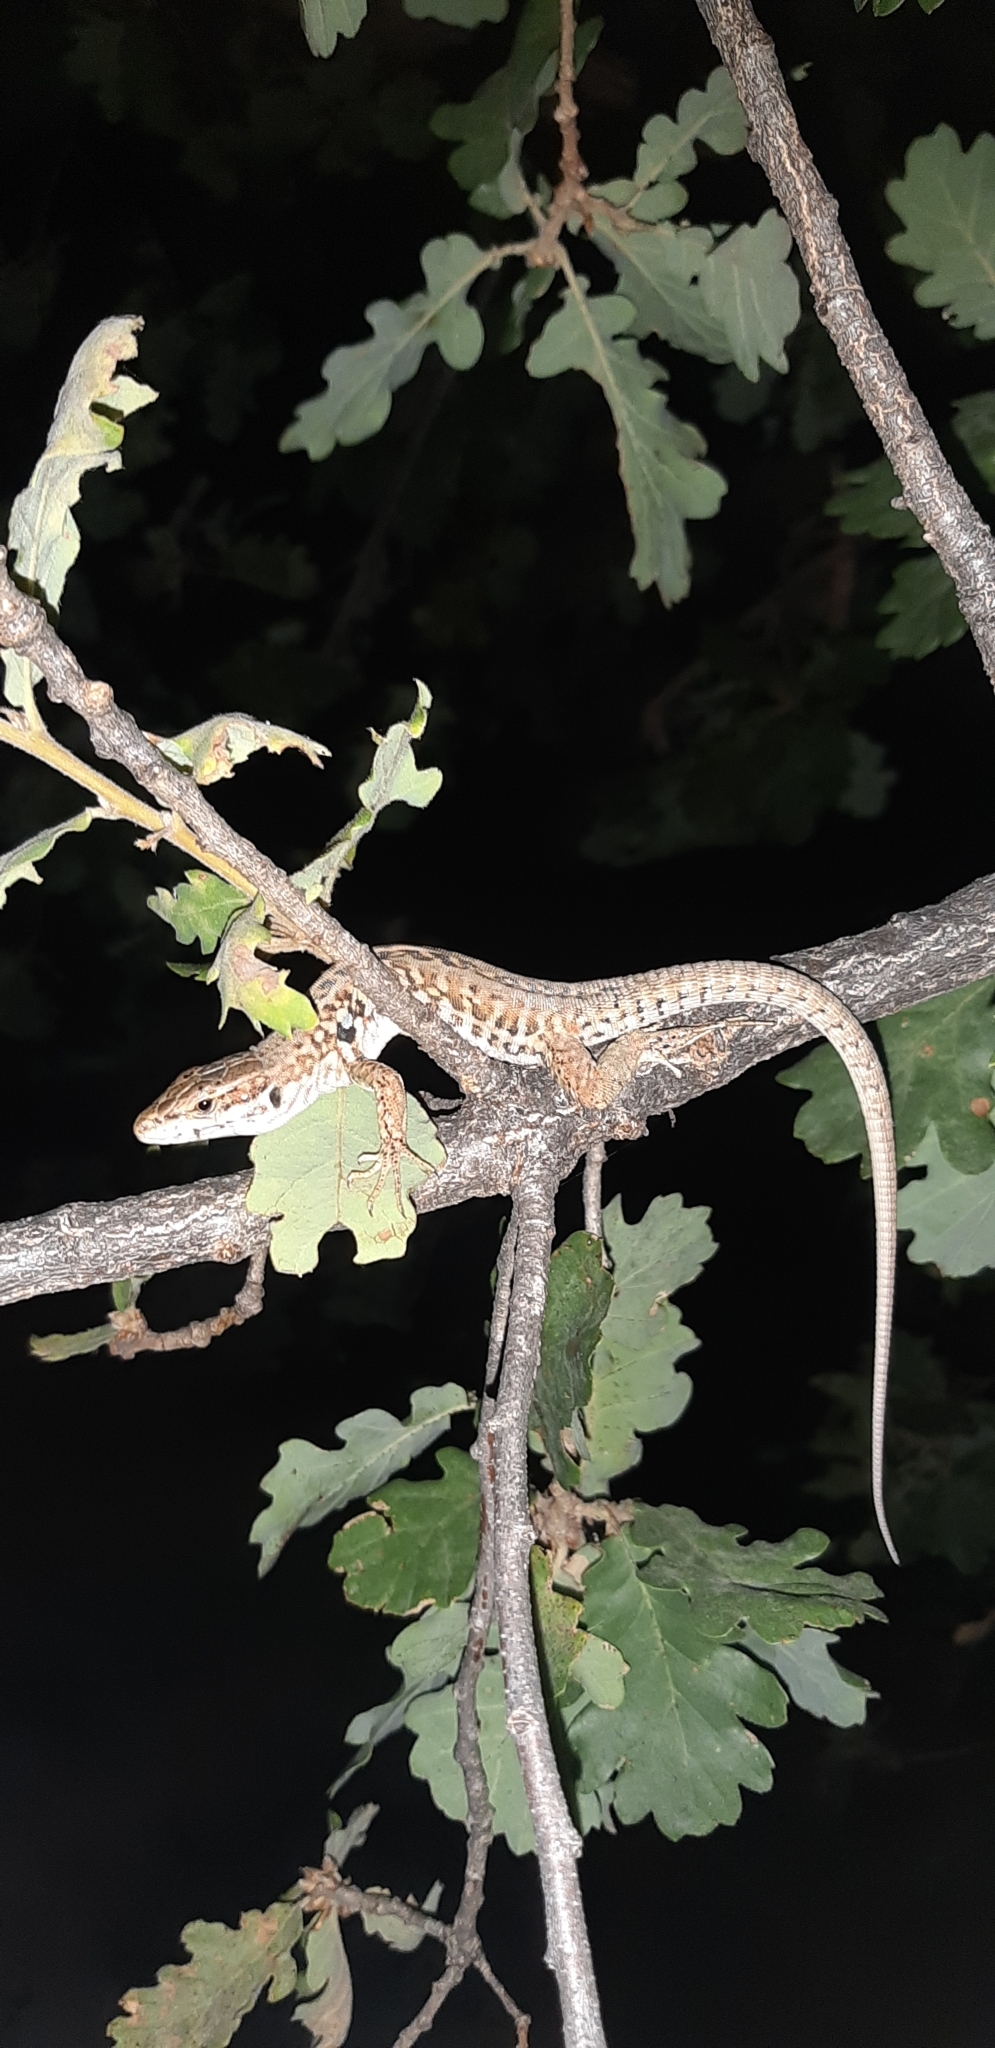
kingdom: Animalia
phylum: Chordata
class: Squamata
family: Lacertidae
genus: Podarcis
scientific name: Podarcis siculus
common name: Italian wall lizard
